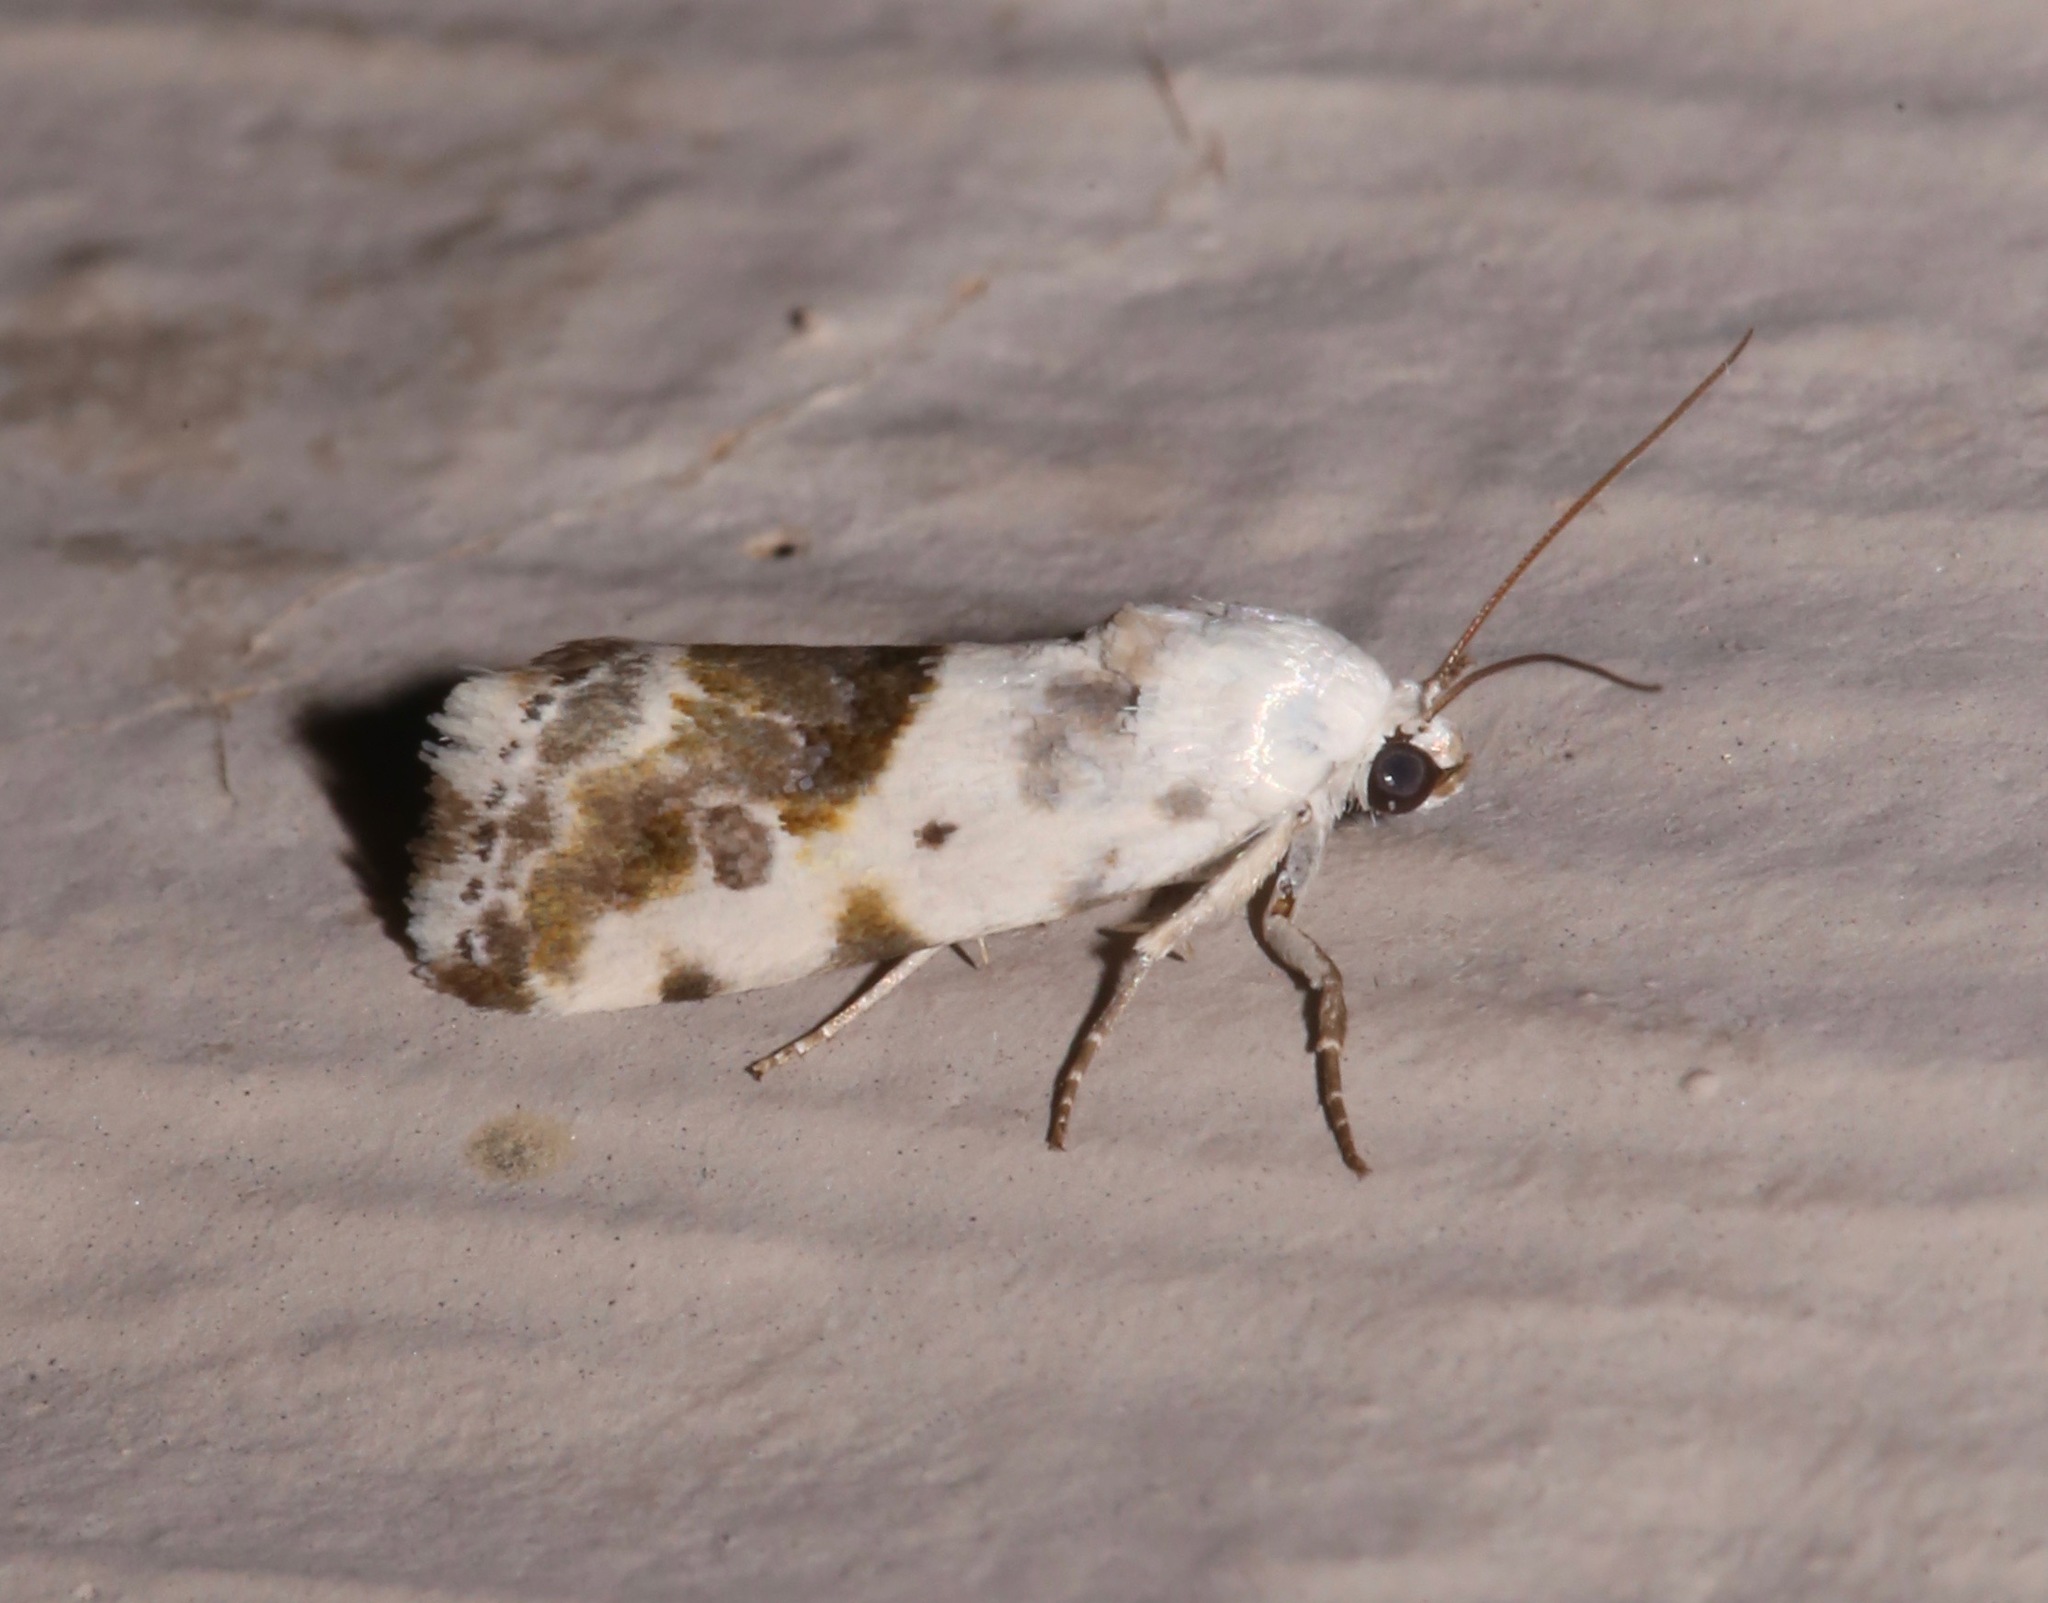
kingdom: Animalia
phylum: Arthropoda
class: Insecta
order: Lepidoptera
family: Noctuidae
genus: Acontia
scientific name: Acontia candefacta
